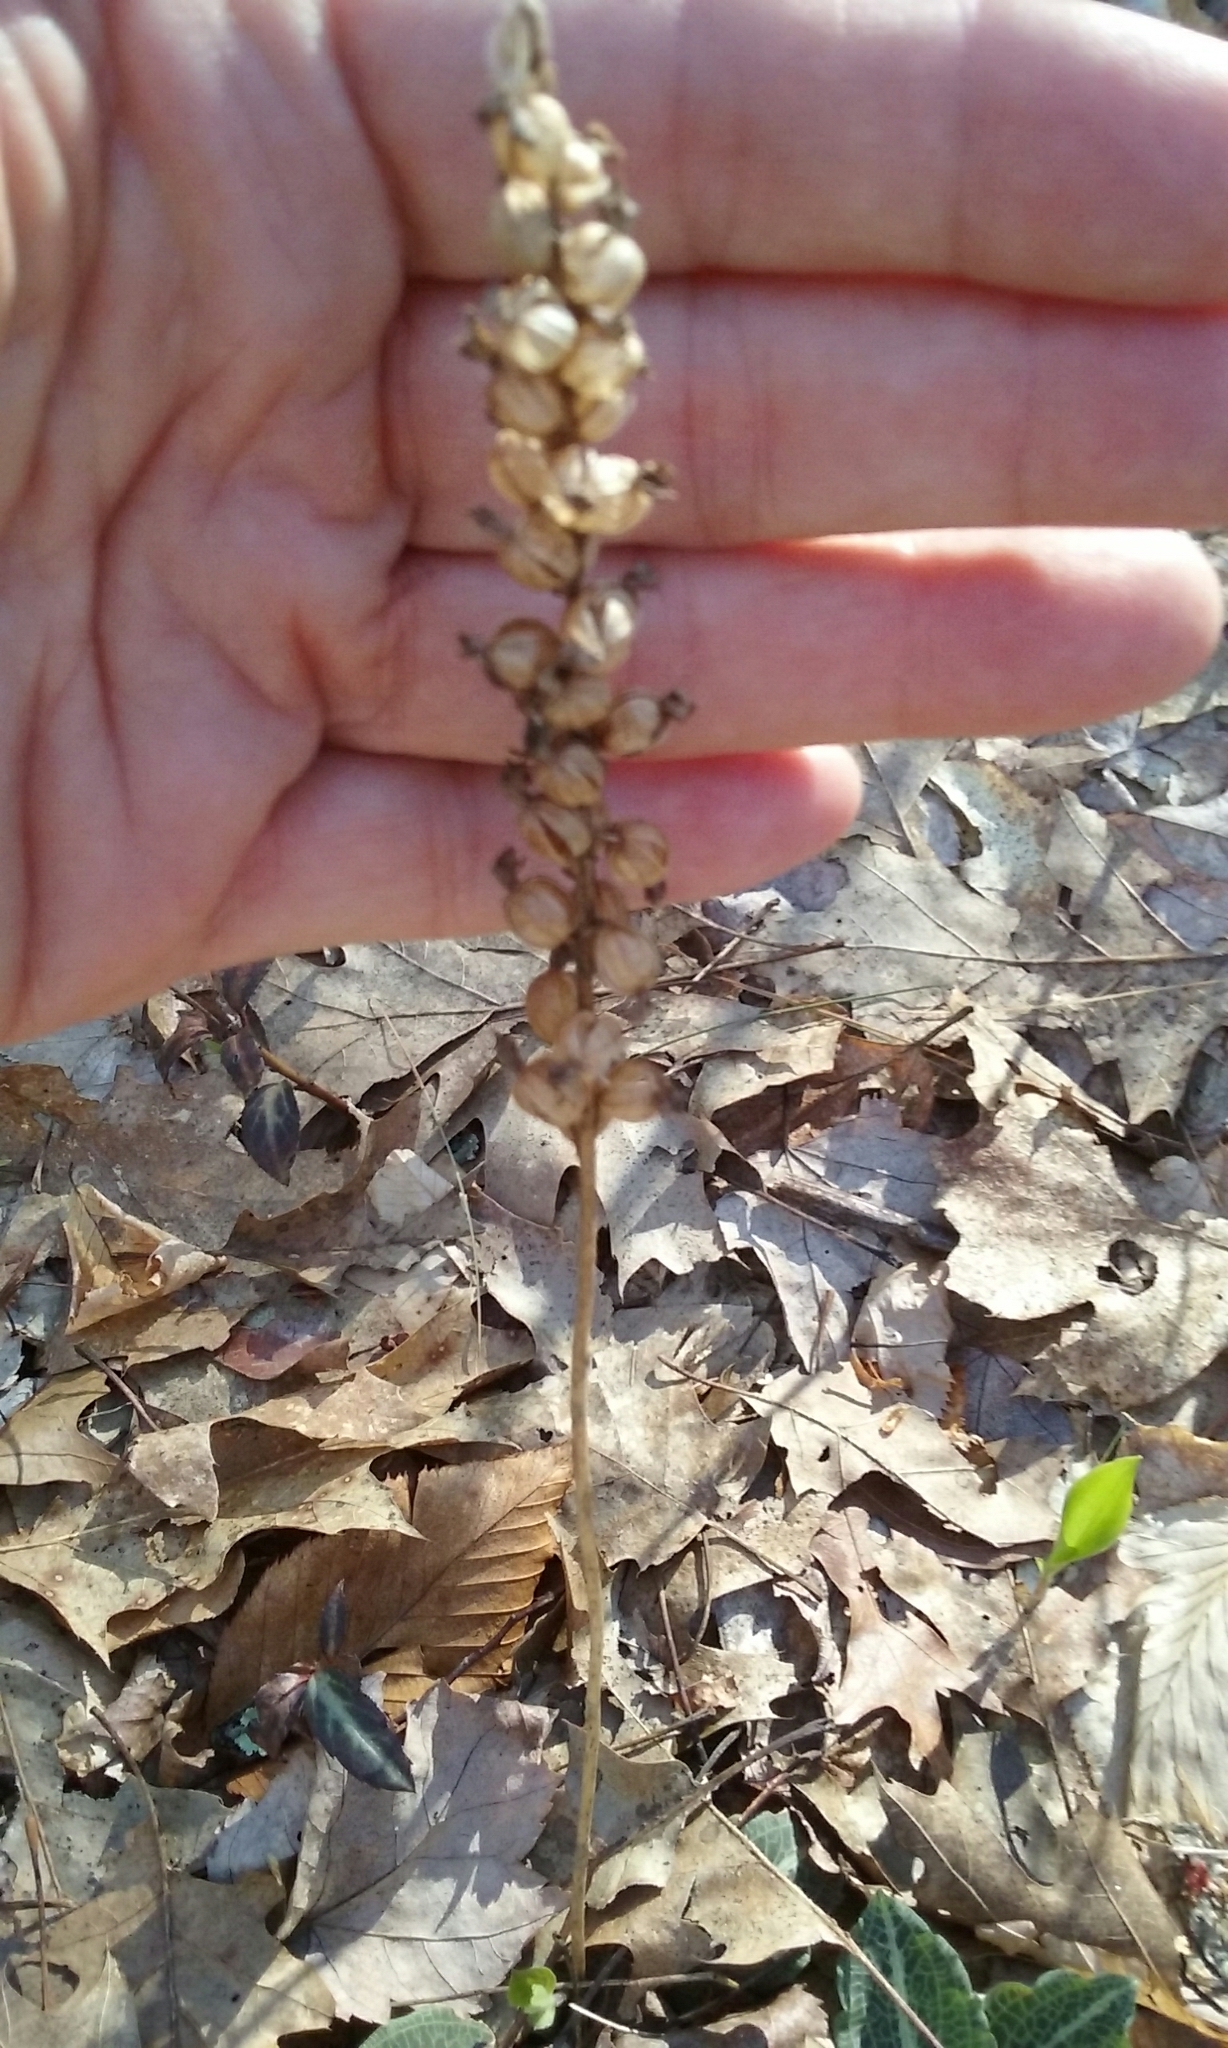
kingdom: Plantae
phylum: Tracheophyta
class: Liliopsida
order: Asparagales
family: Orchidaceae
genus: Goodyera
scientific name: Goodyera pubescens
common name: Downy rattlesnake-plantain
